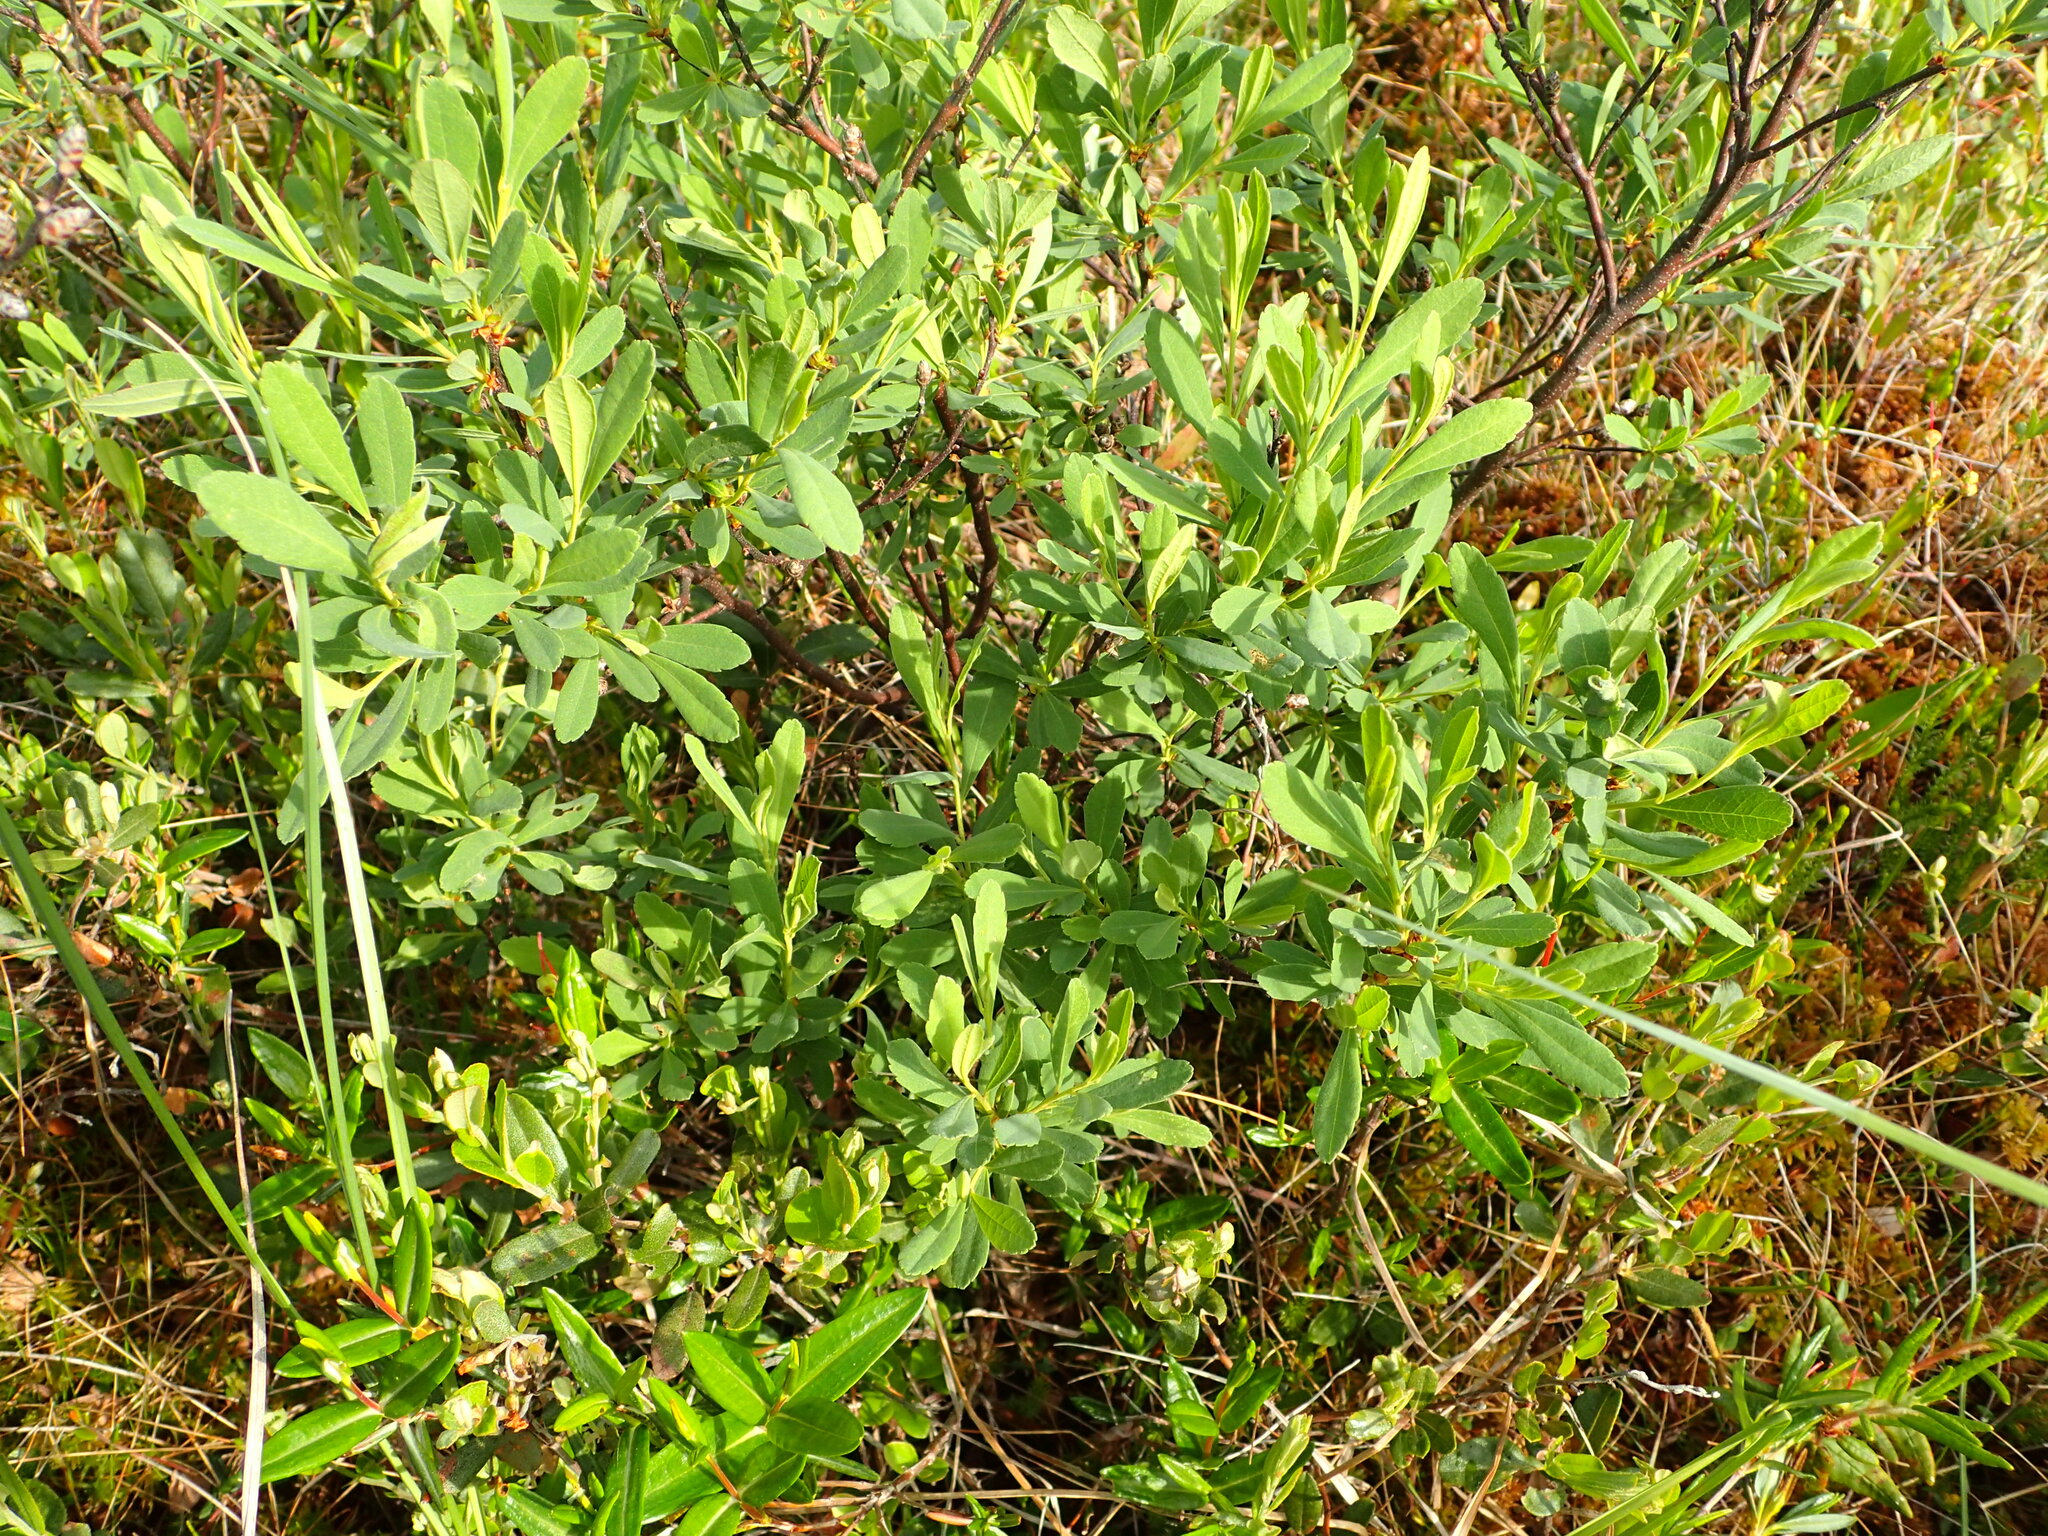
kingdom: Plantae
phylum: Tracheophyta
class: Magnoliopsida
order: Fagales
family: Myricaceae
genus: Myrica
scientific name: Myrica gale
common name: Sweet gale
